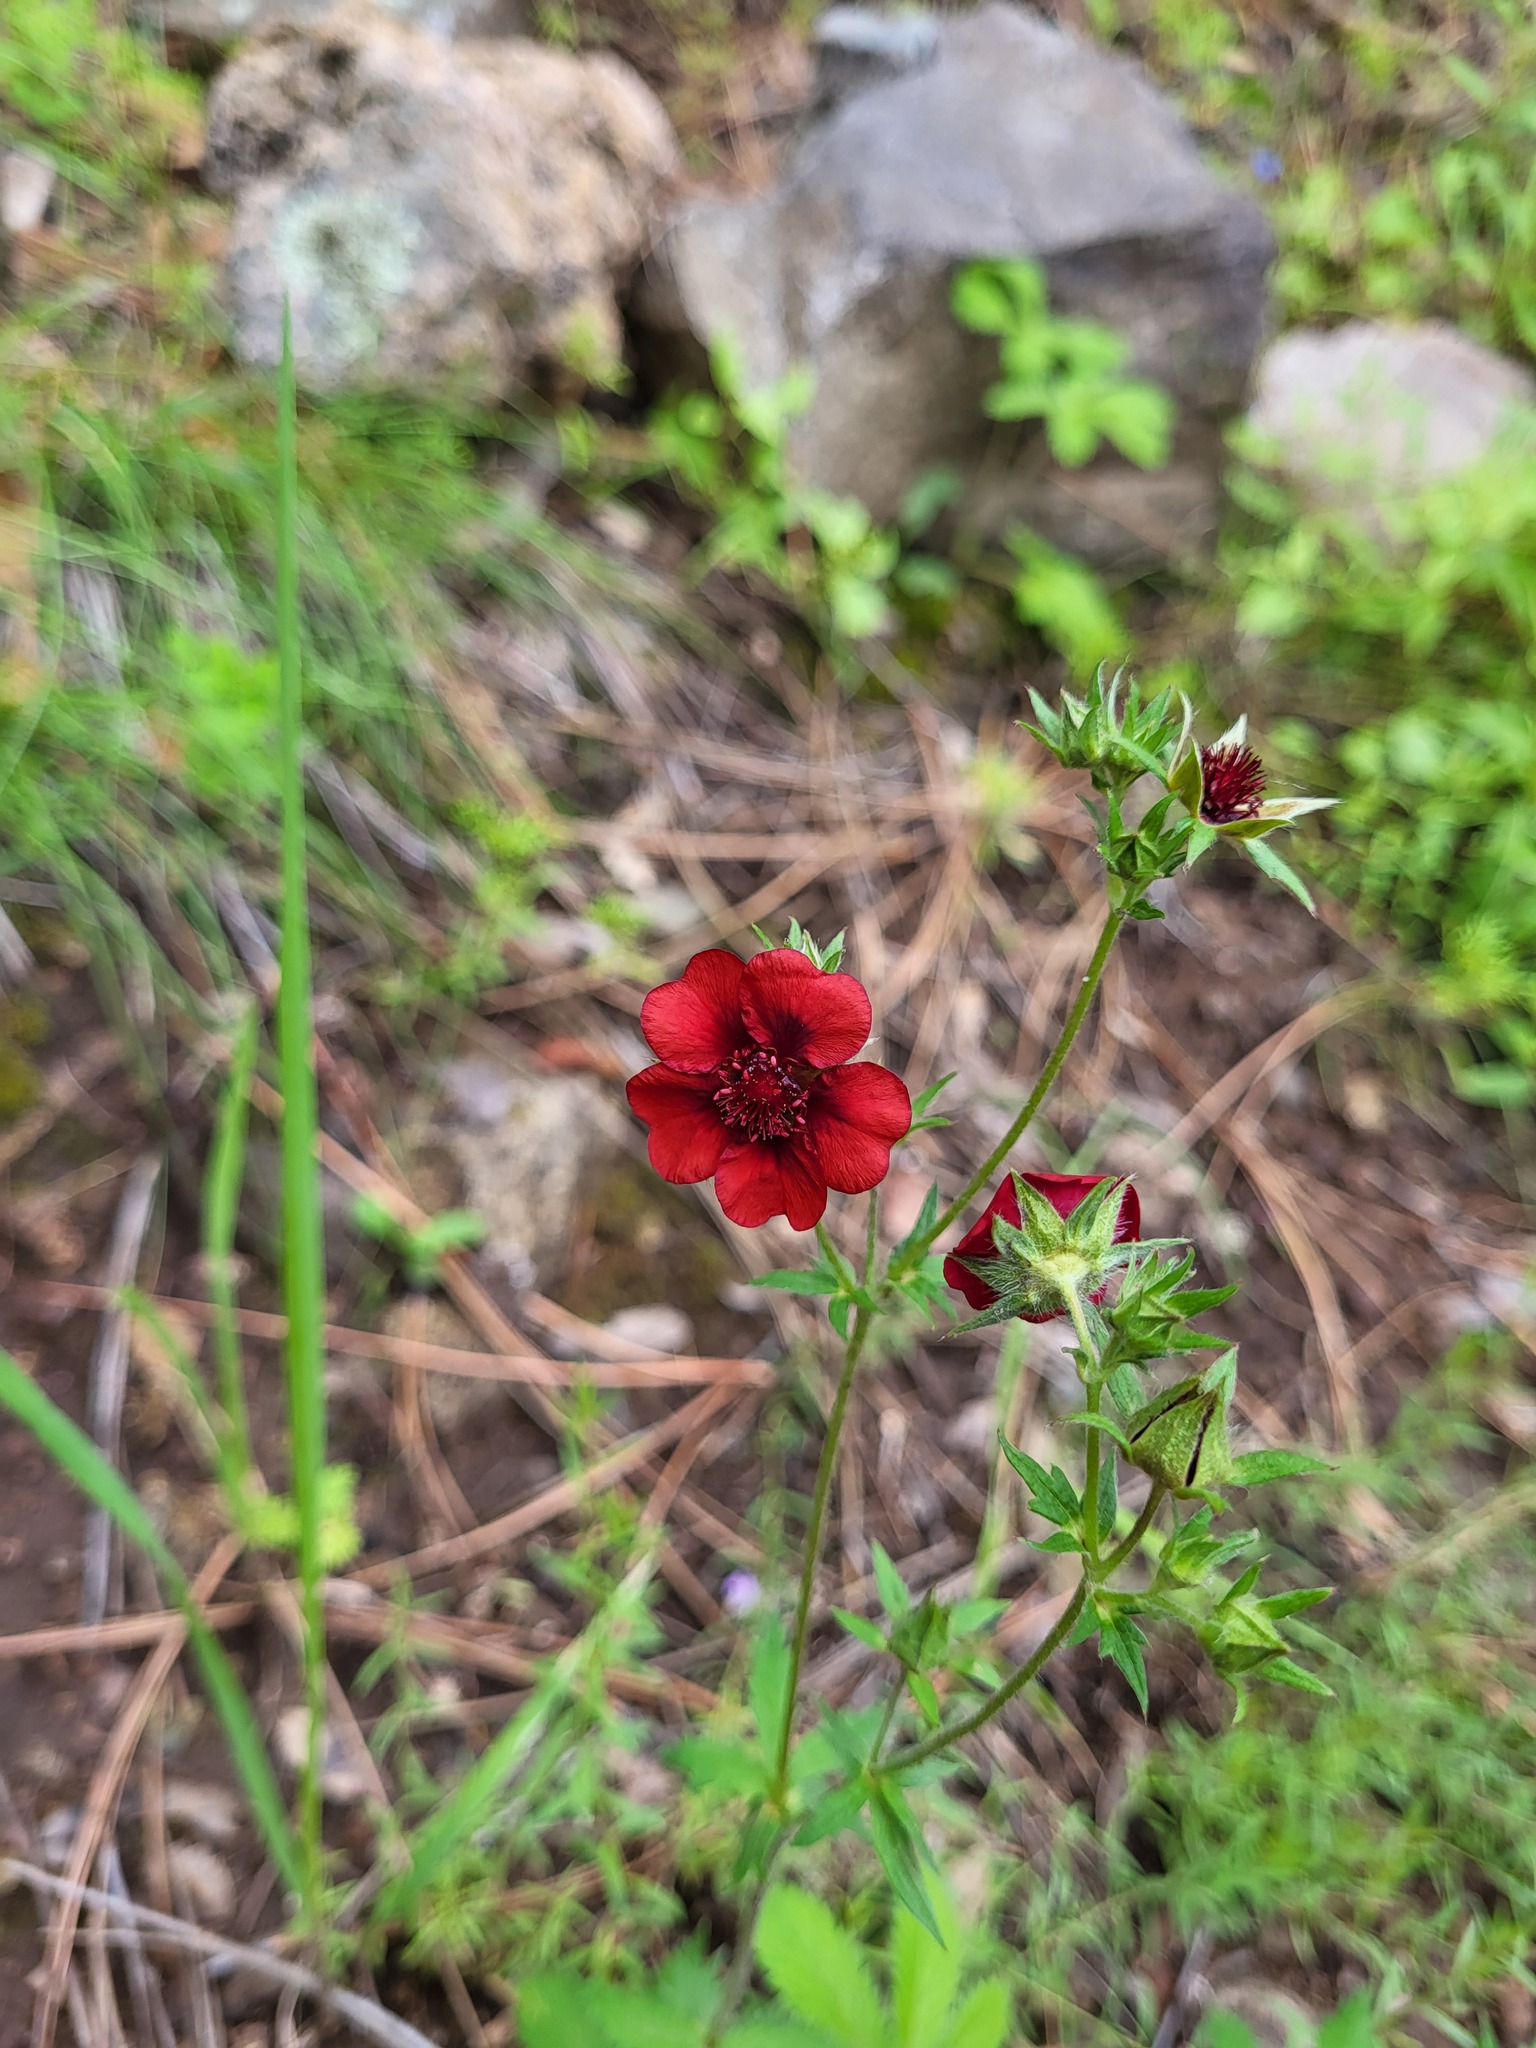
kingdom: Plantae
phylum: Tracheophyta
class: Magnoliopsida
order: Rosales
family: Rosaceae
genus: Potentilla
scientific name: Potentilla thurberi
